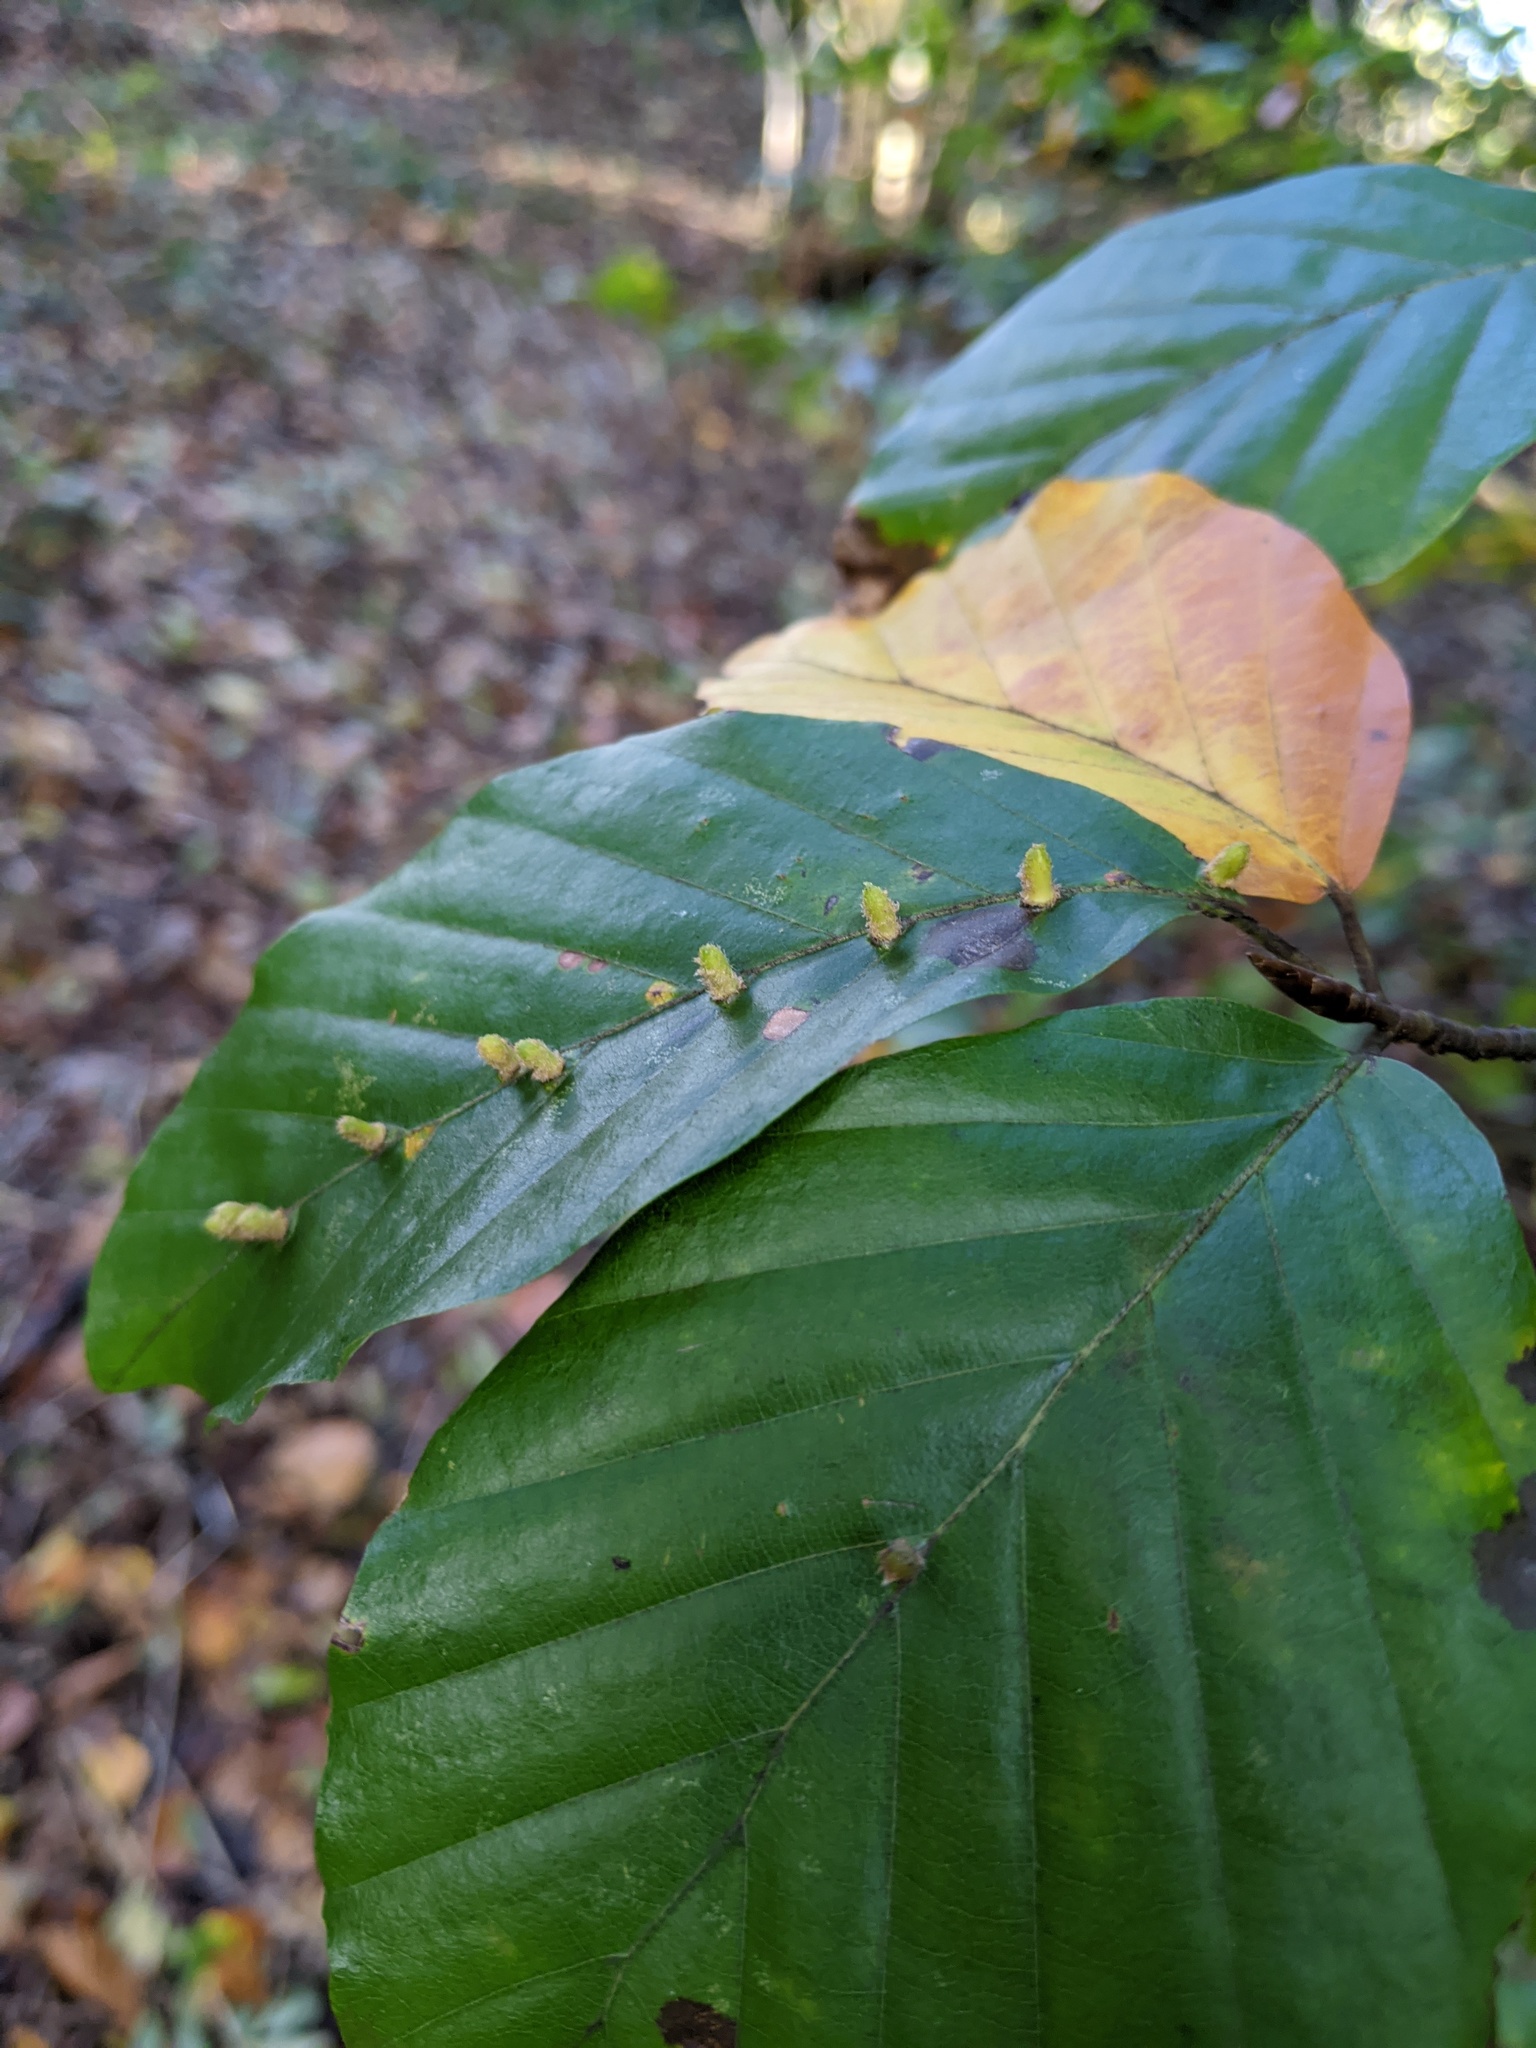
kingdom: Animalia
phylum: Arthropoda
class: Insecta
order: Diptera
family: Cecidomyiidae
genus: Hartigiola
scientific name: Hartigiola annulipes
